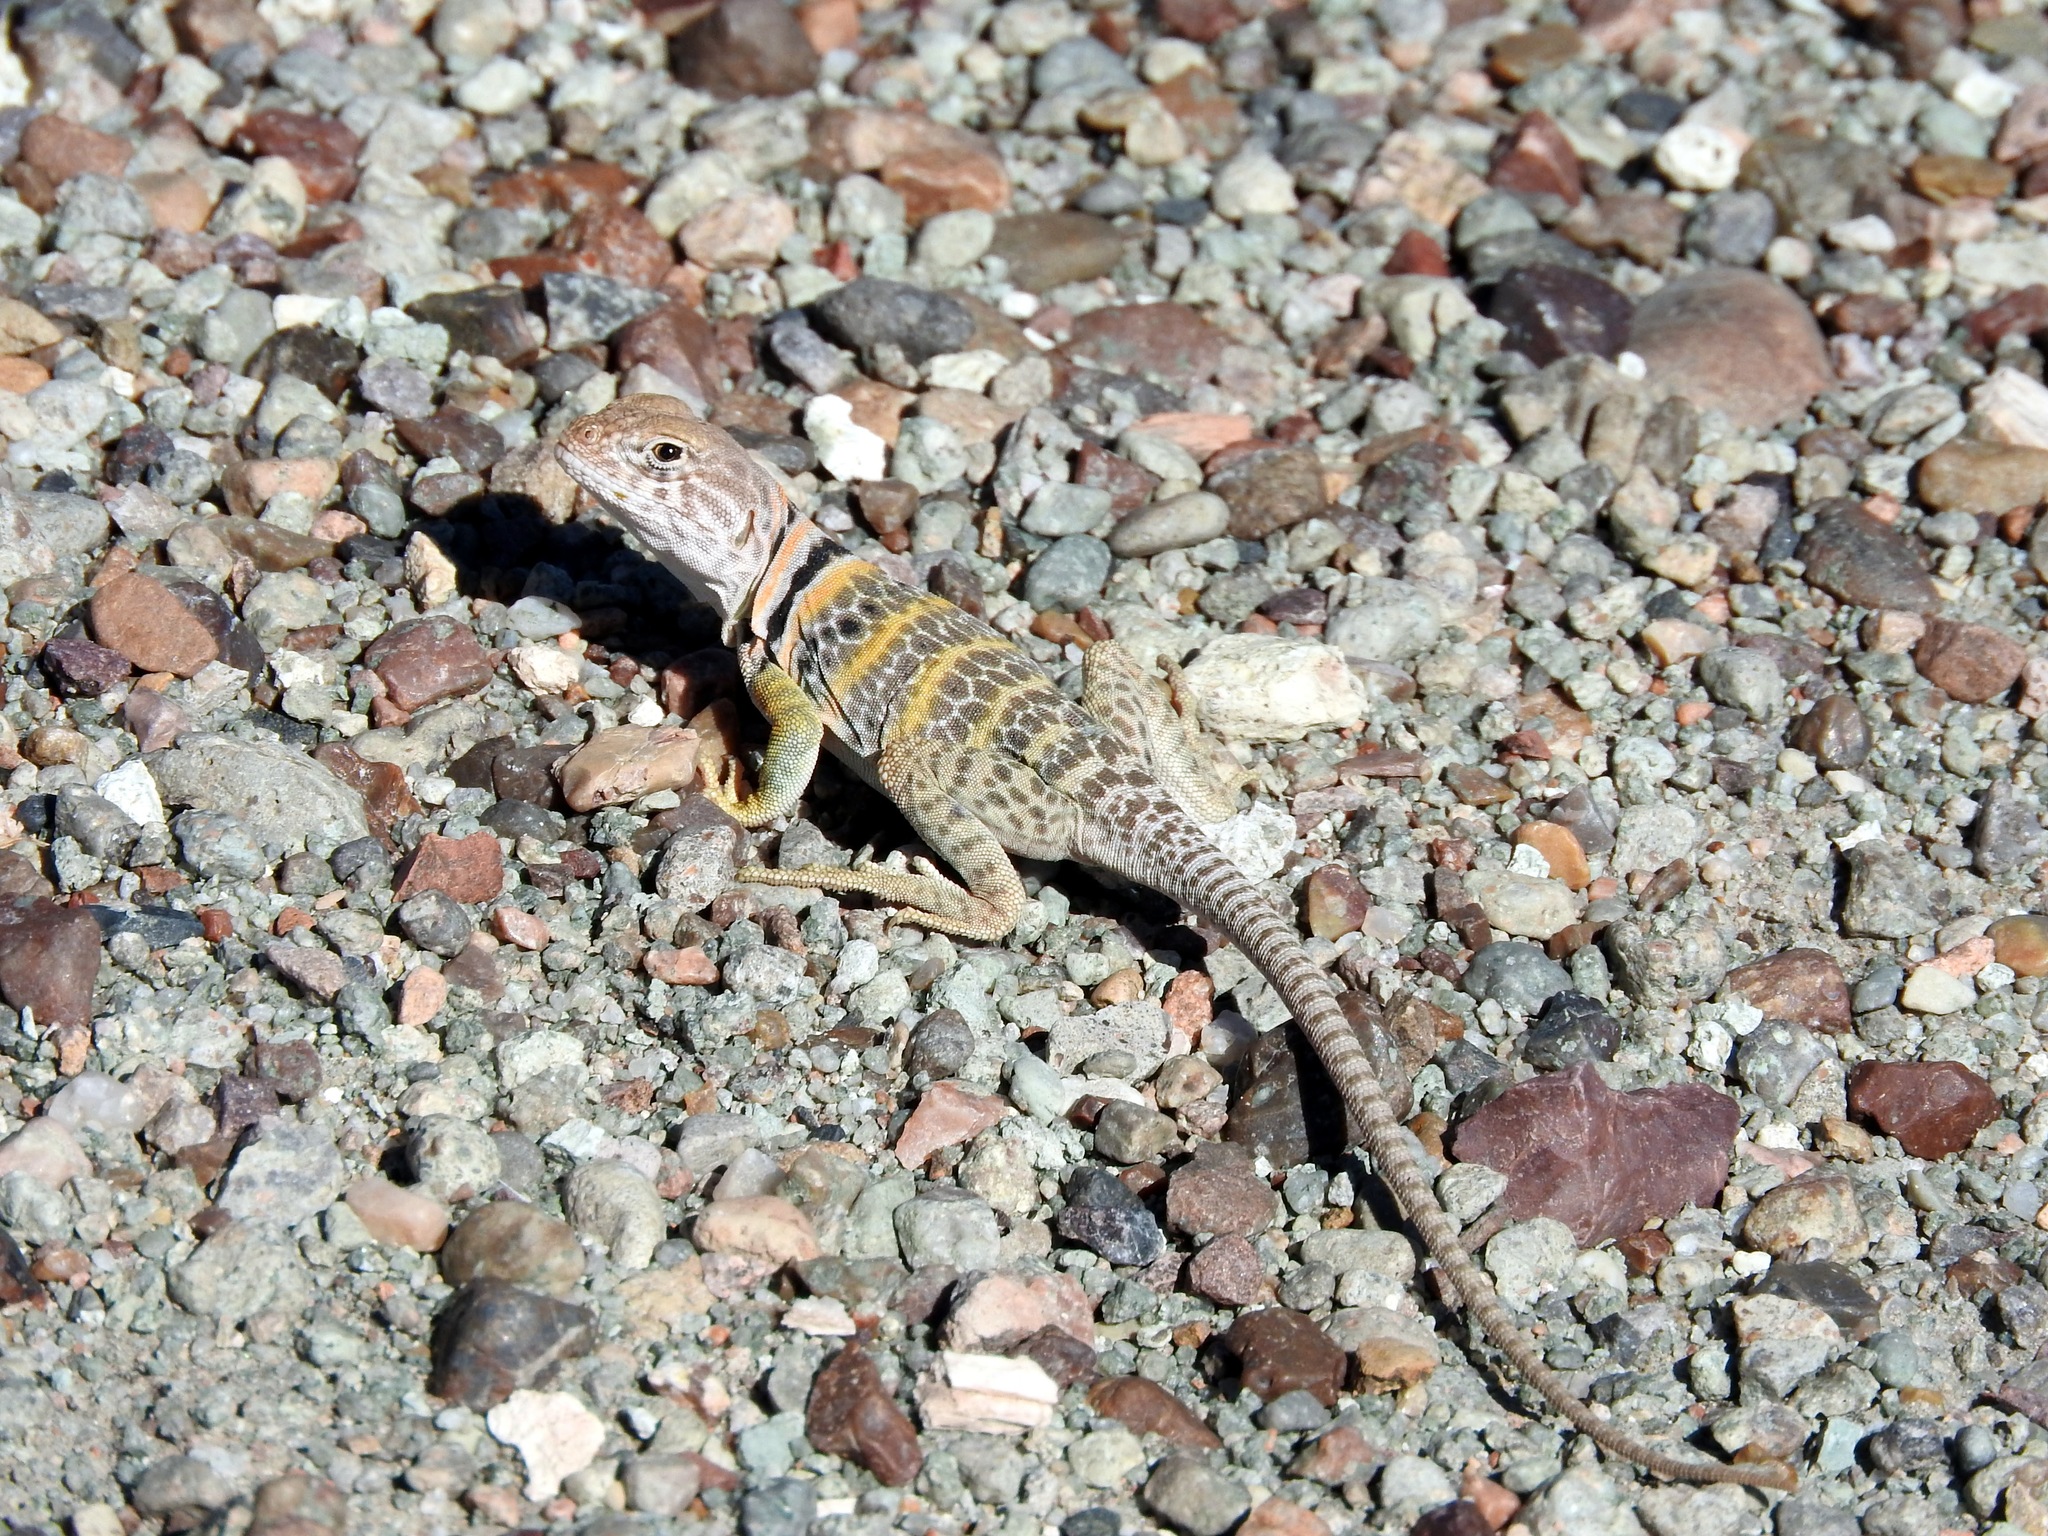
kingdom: Animalia
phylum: Chordata
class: Squamata
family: Crotaphytidae
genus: Crotaphytus
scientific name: Crotaphytus collaris
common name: Collared lizard
